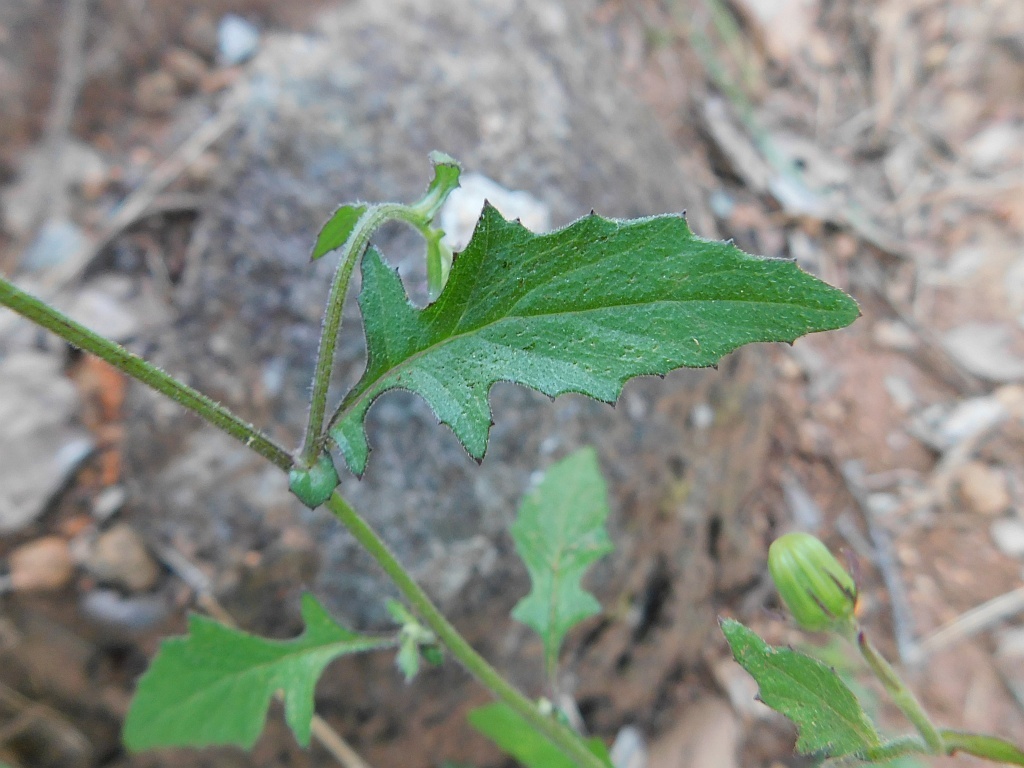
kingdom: Plantae
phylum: Tracheophyta
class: Magnoliopsida
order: Asterales
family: Asteraceae
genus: Crassocephalum
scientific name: Crassocephalum rubens
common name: Yoruban bologi
